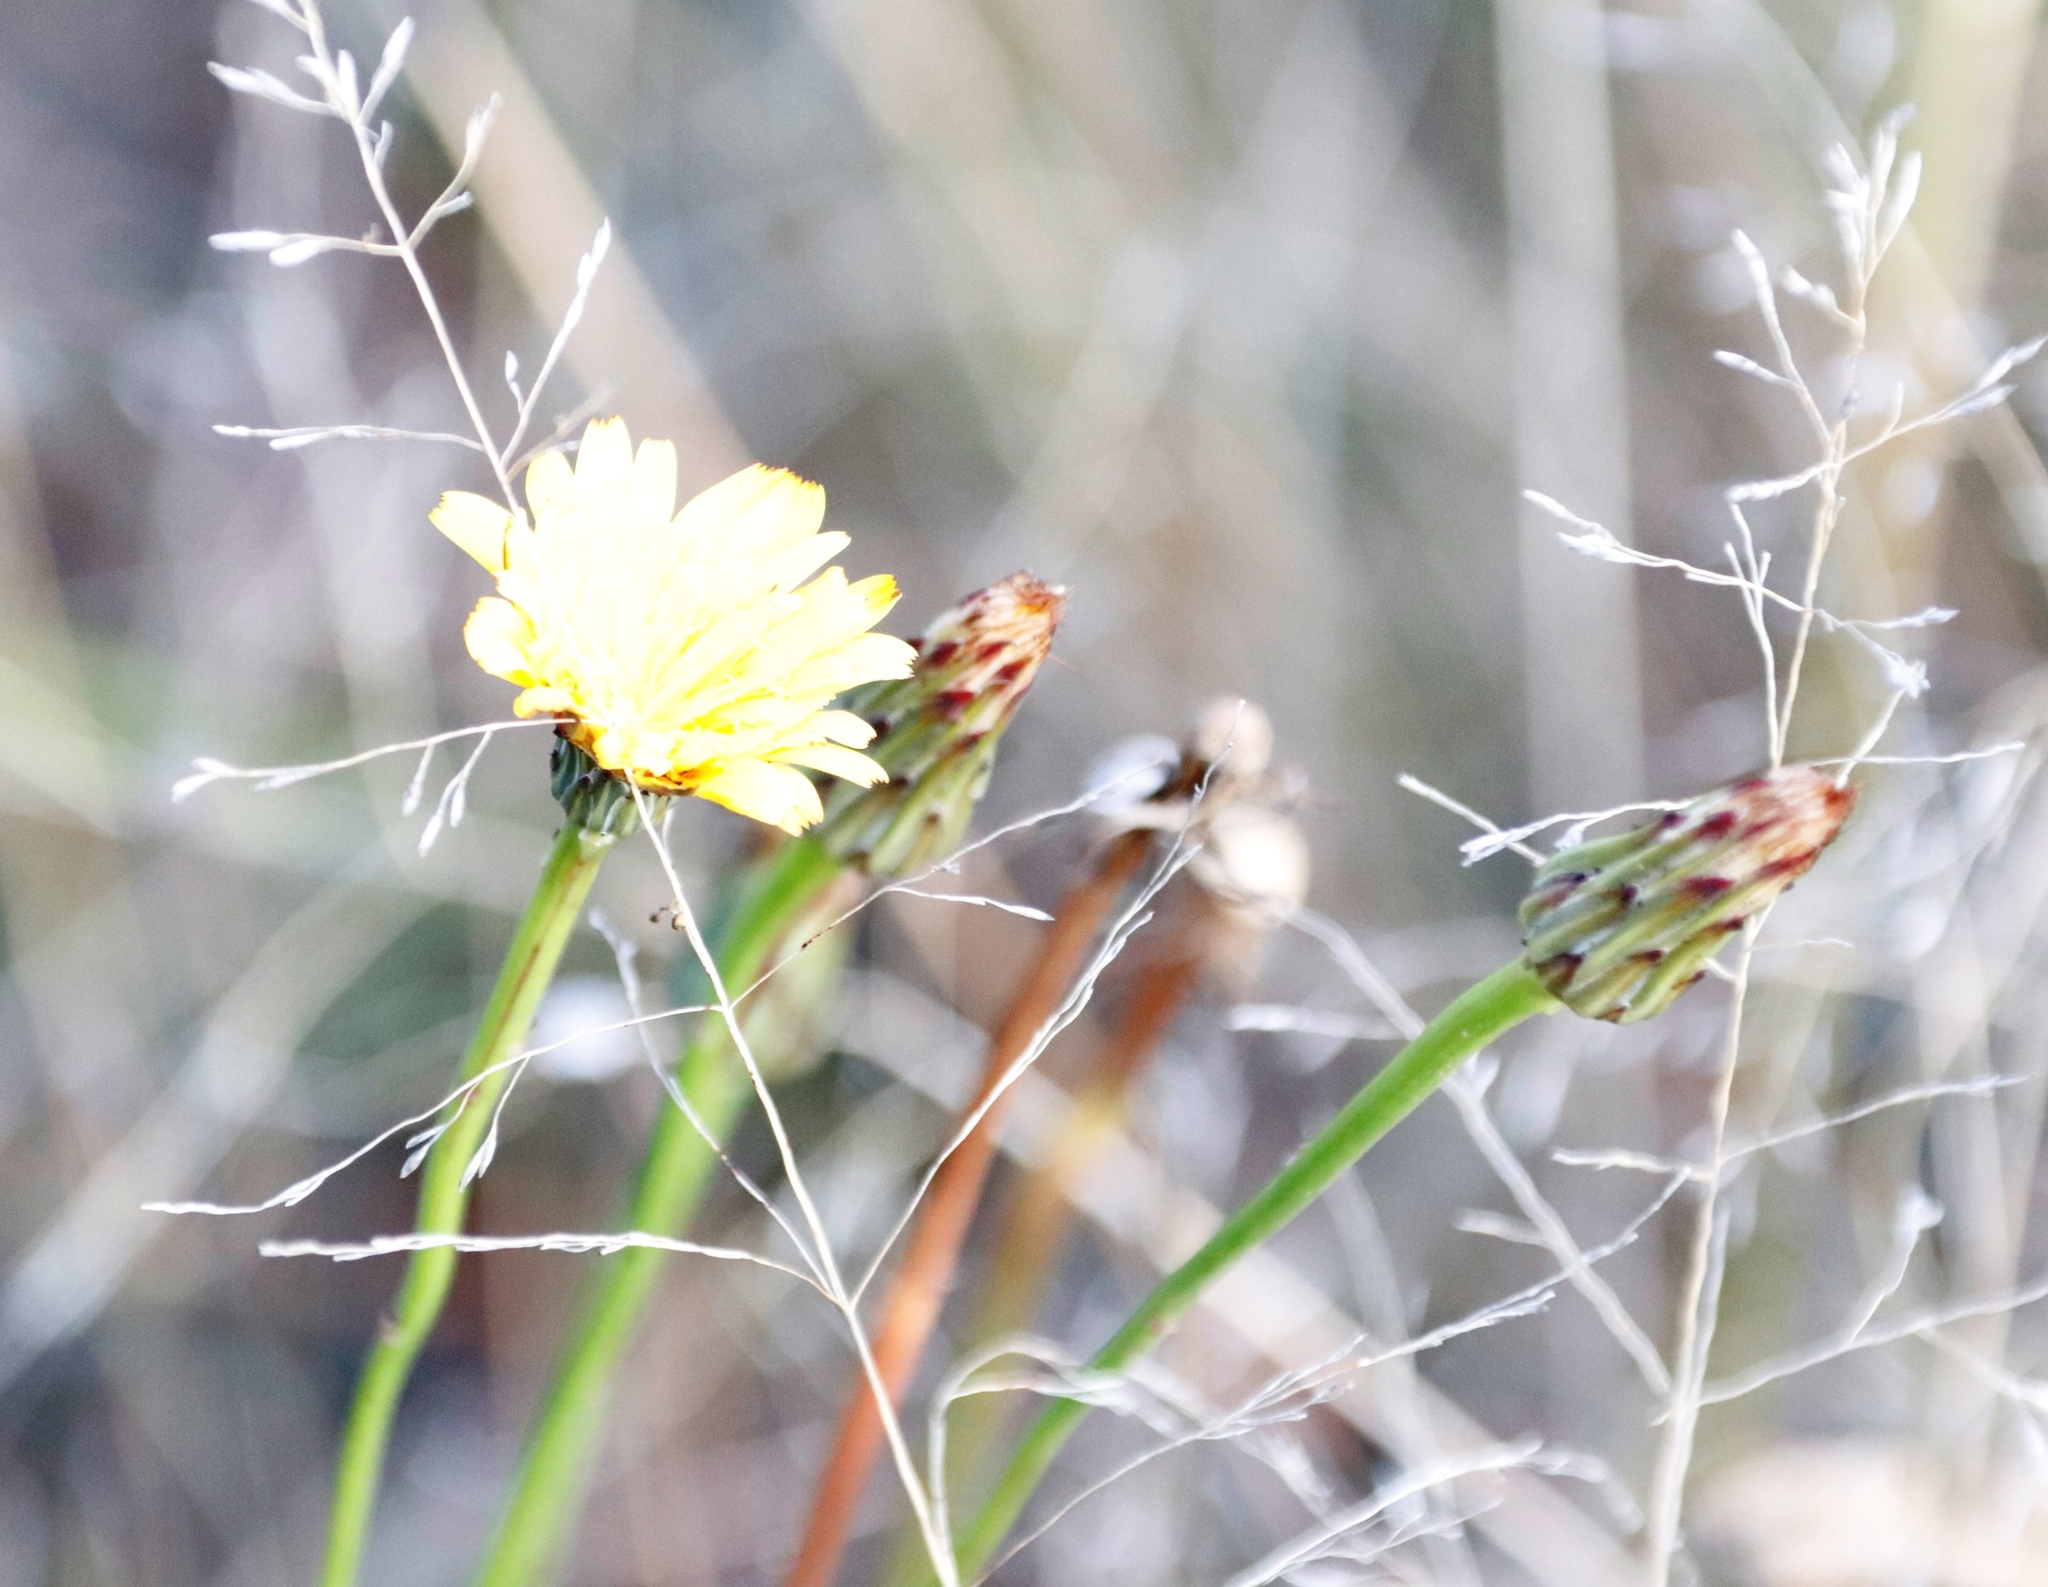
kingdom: Plantae
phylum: Tracheophyta
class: Magnoliopsida
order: Asterales
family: Asteraceae
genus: Hypochaeris
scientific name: Hypochaeris radicata
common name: Flatweed
